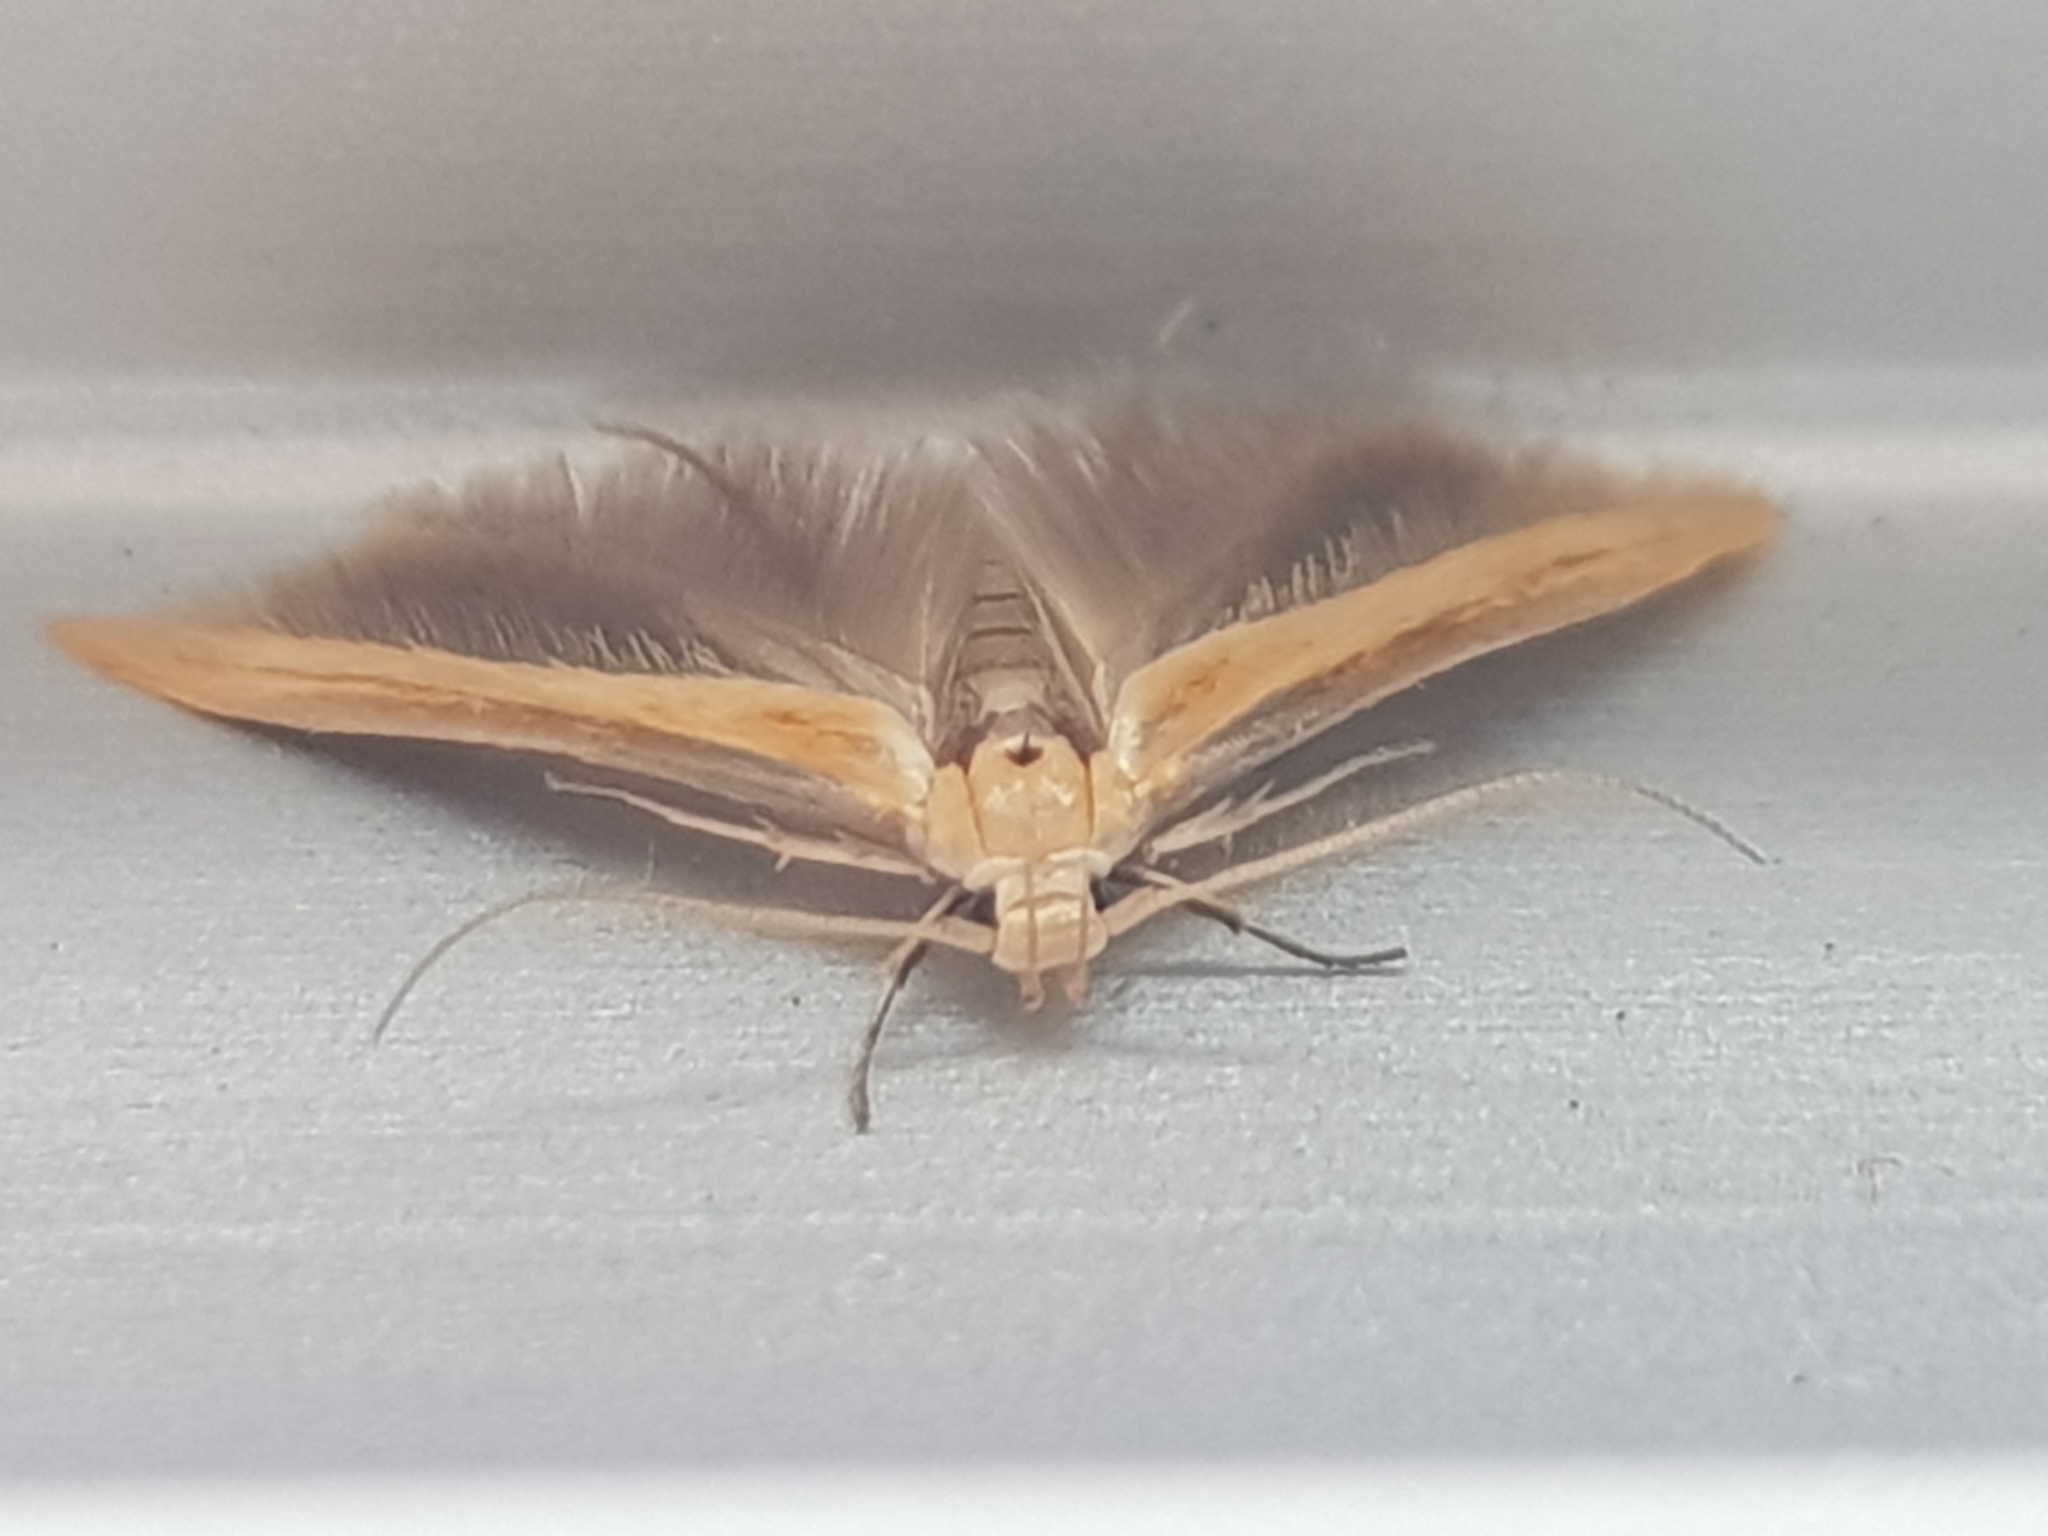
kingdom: Animalia
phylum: Arthropoda
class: Insecta
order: Lepidoptera
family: Stathmopodidae
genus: Stathmopoda
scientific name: Stathmopoda skelloni
